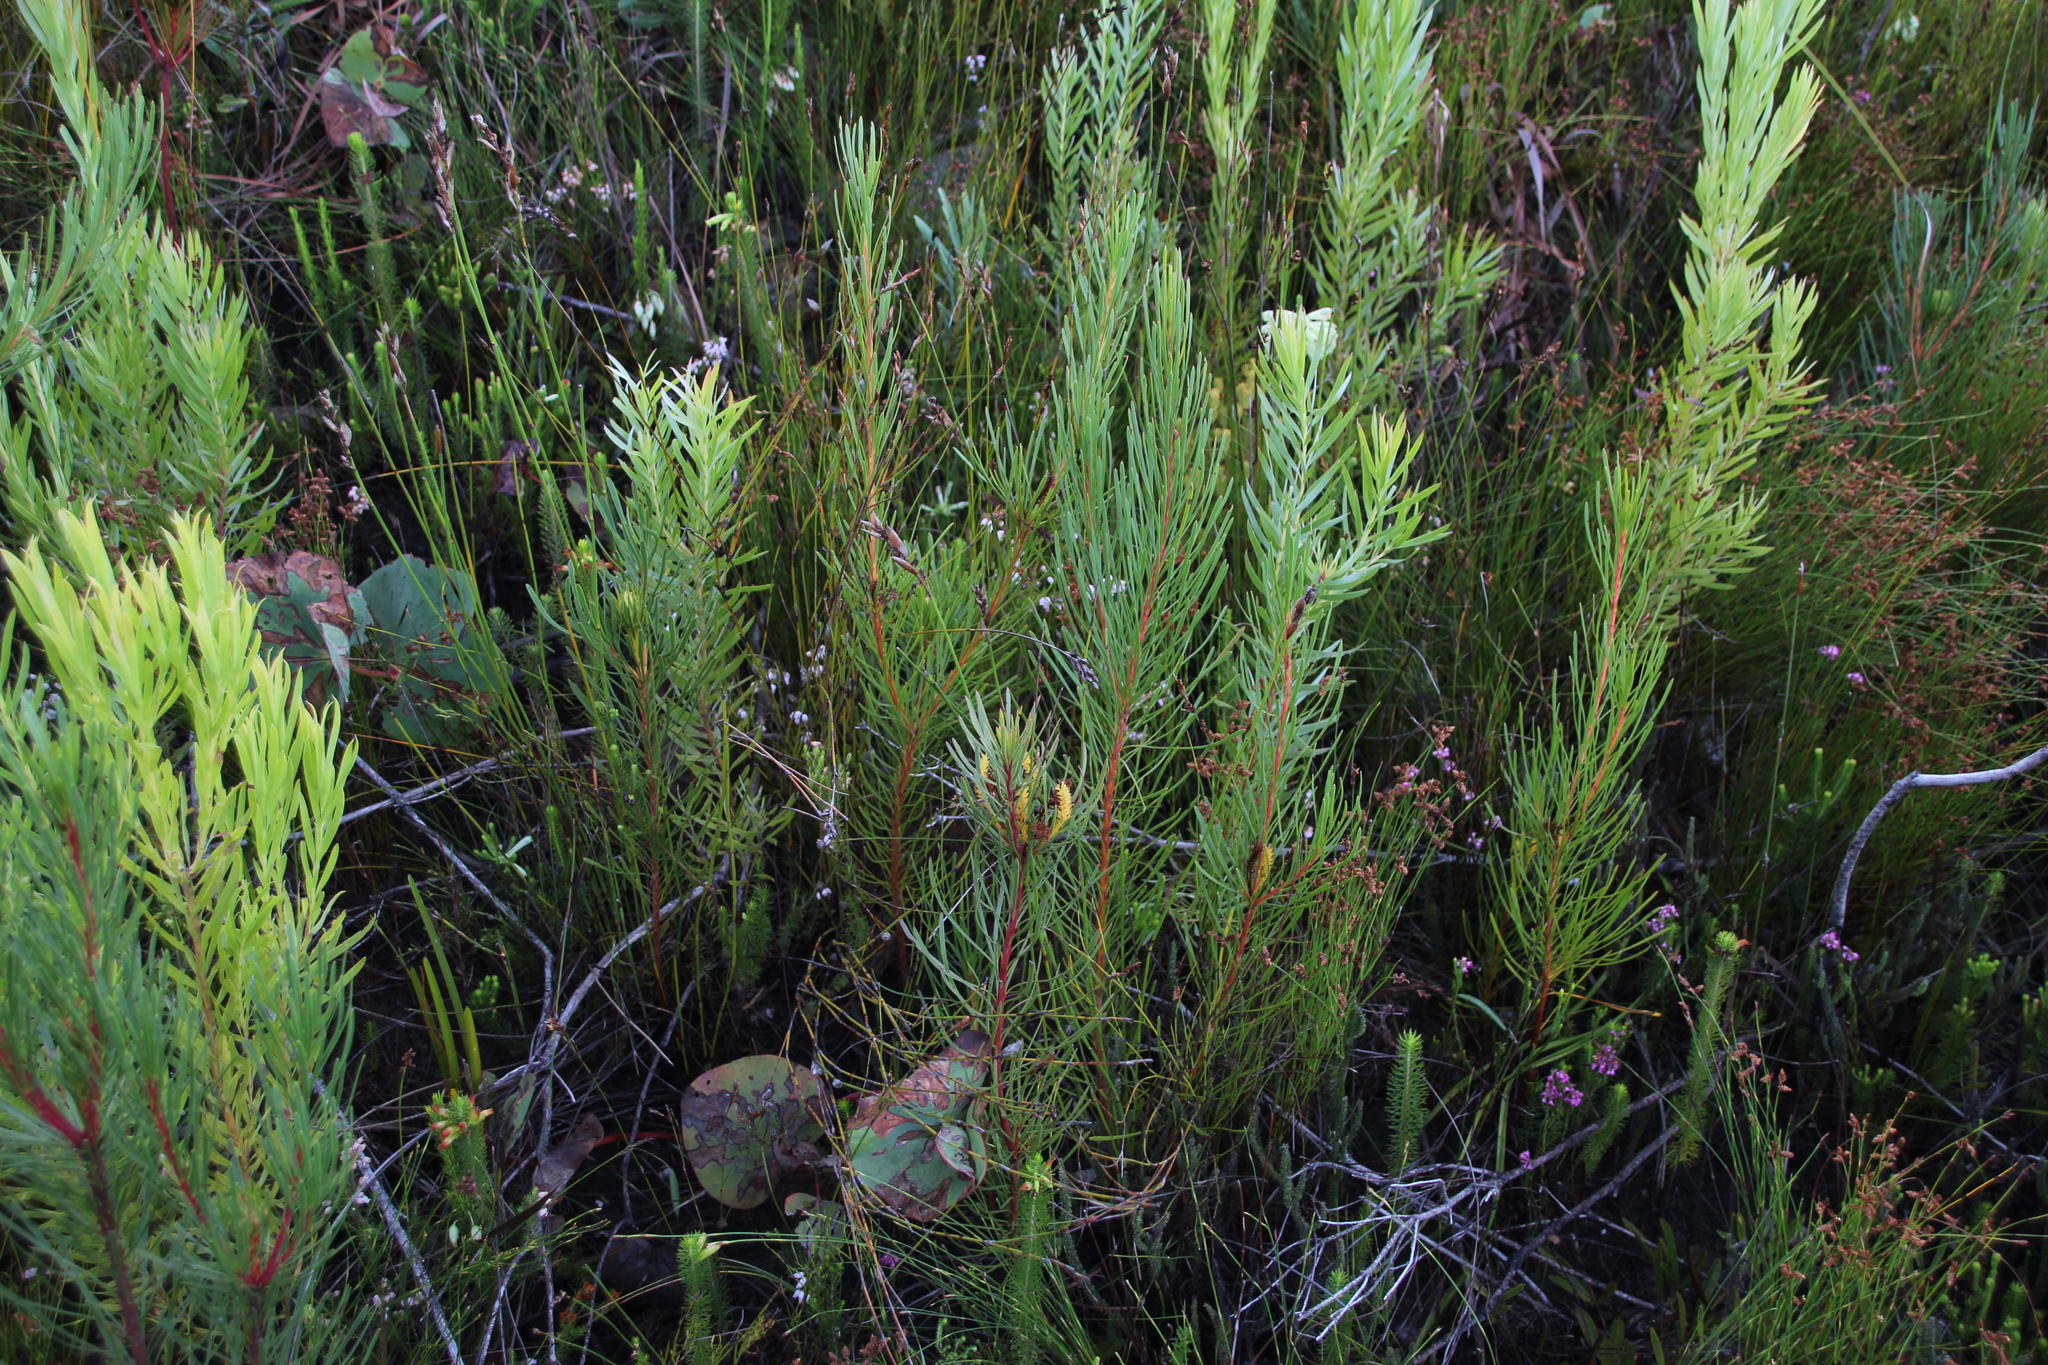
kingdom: Plantae
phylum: Tracheophyta
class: Magnoliopsida
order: Proteales
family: Proteaceae
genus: Aulax
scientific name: Aulax
